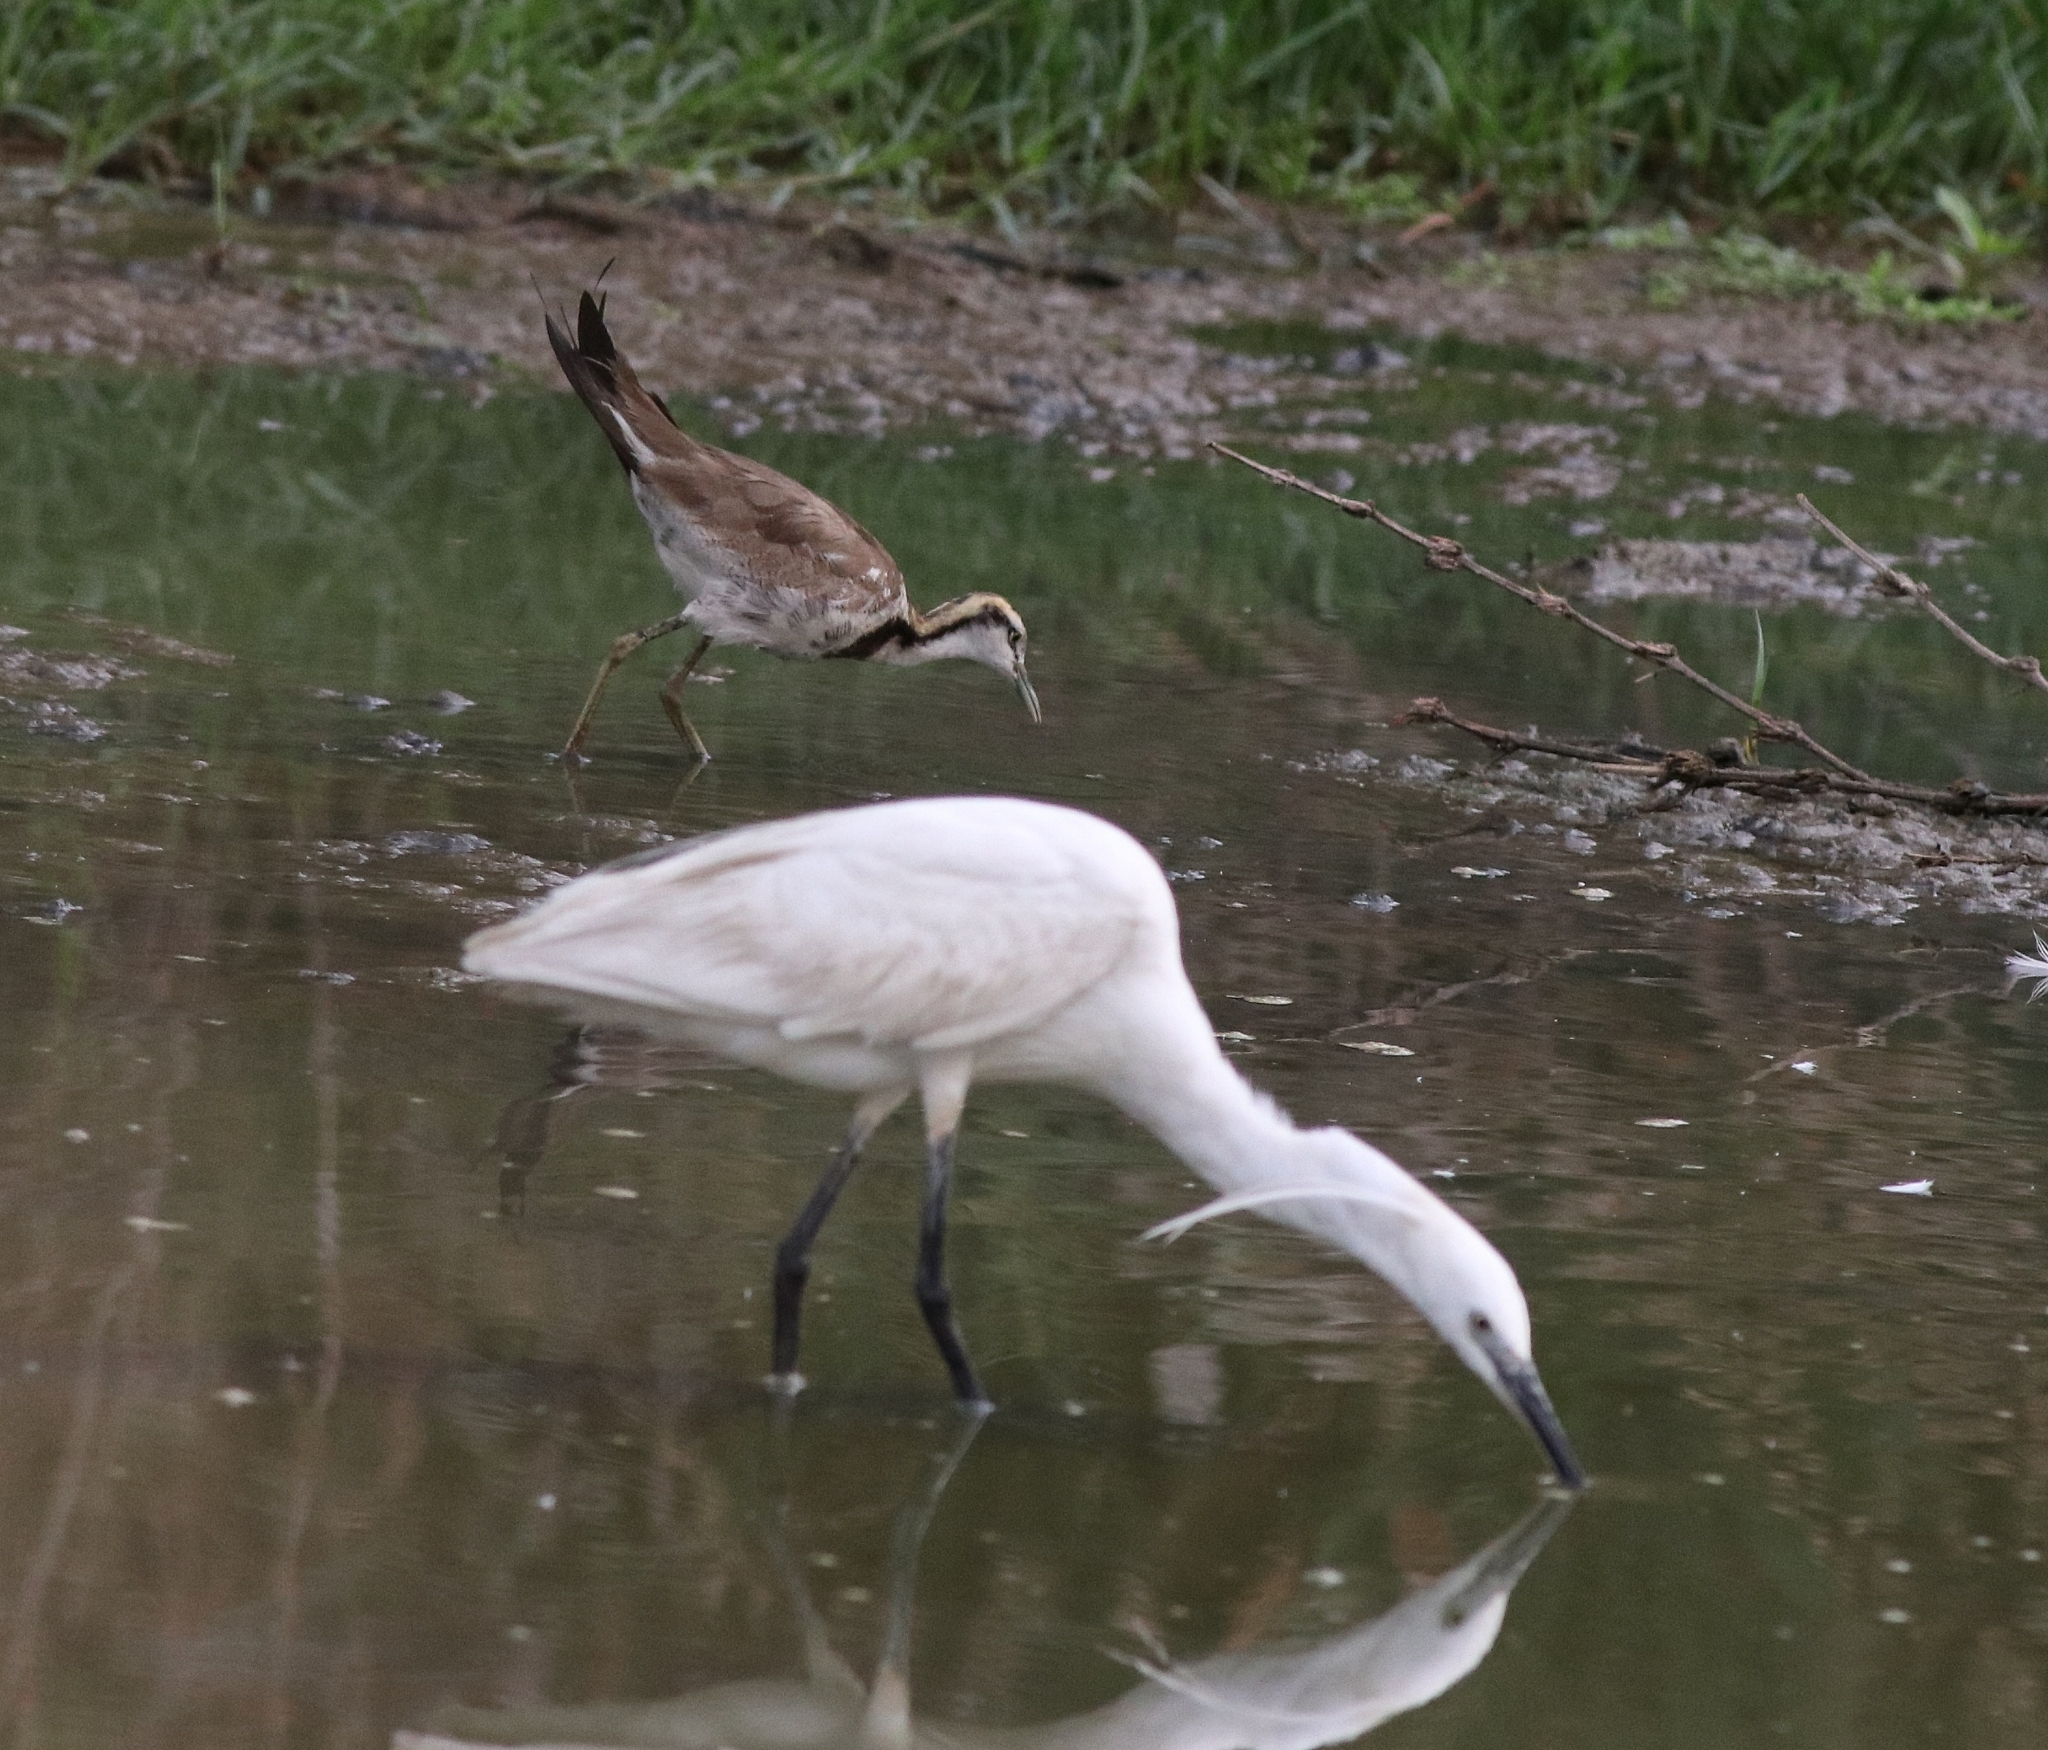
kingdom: Animalia
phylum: Chordata
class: Aves
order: Pelecaniformes
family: Ardeidae
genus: Egretta
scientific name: Egretta garzetta
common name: Little egret
